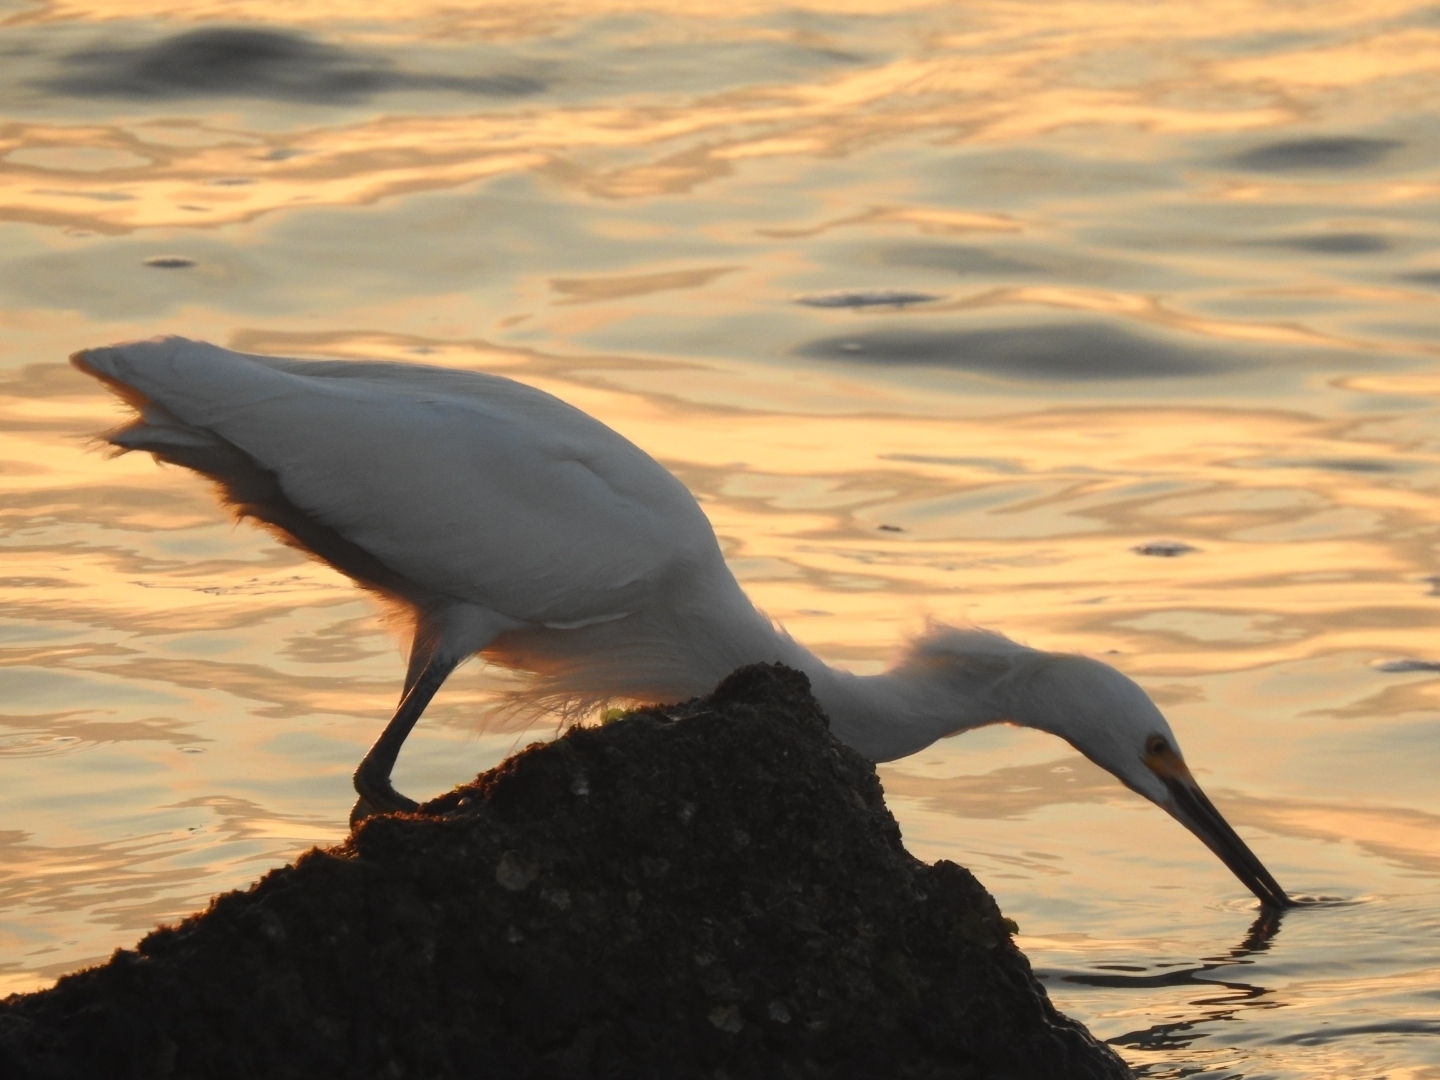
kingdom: Animalia
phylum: Chordata
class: Aves
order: Pelecaniformes
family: Ardeidae
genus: Egretta
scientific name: Egretta thula
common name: Snowy egret
